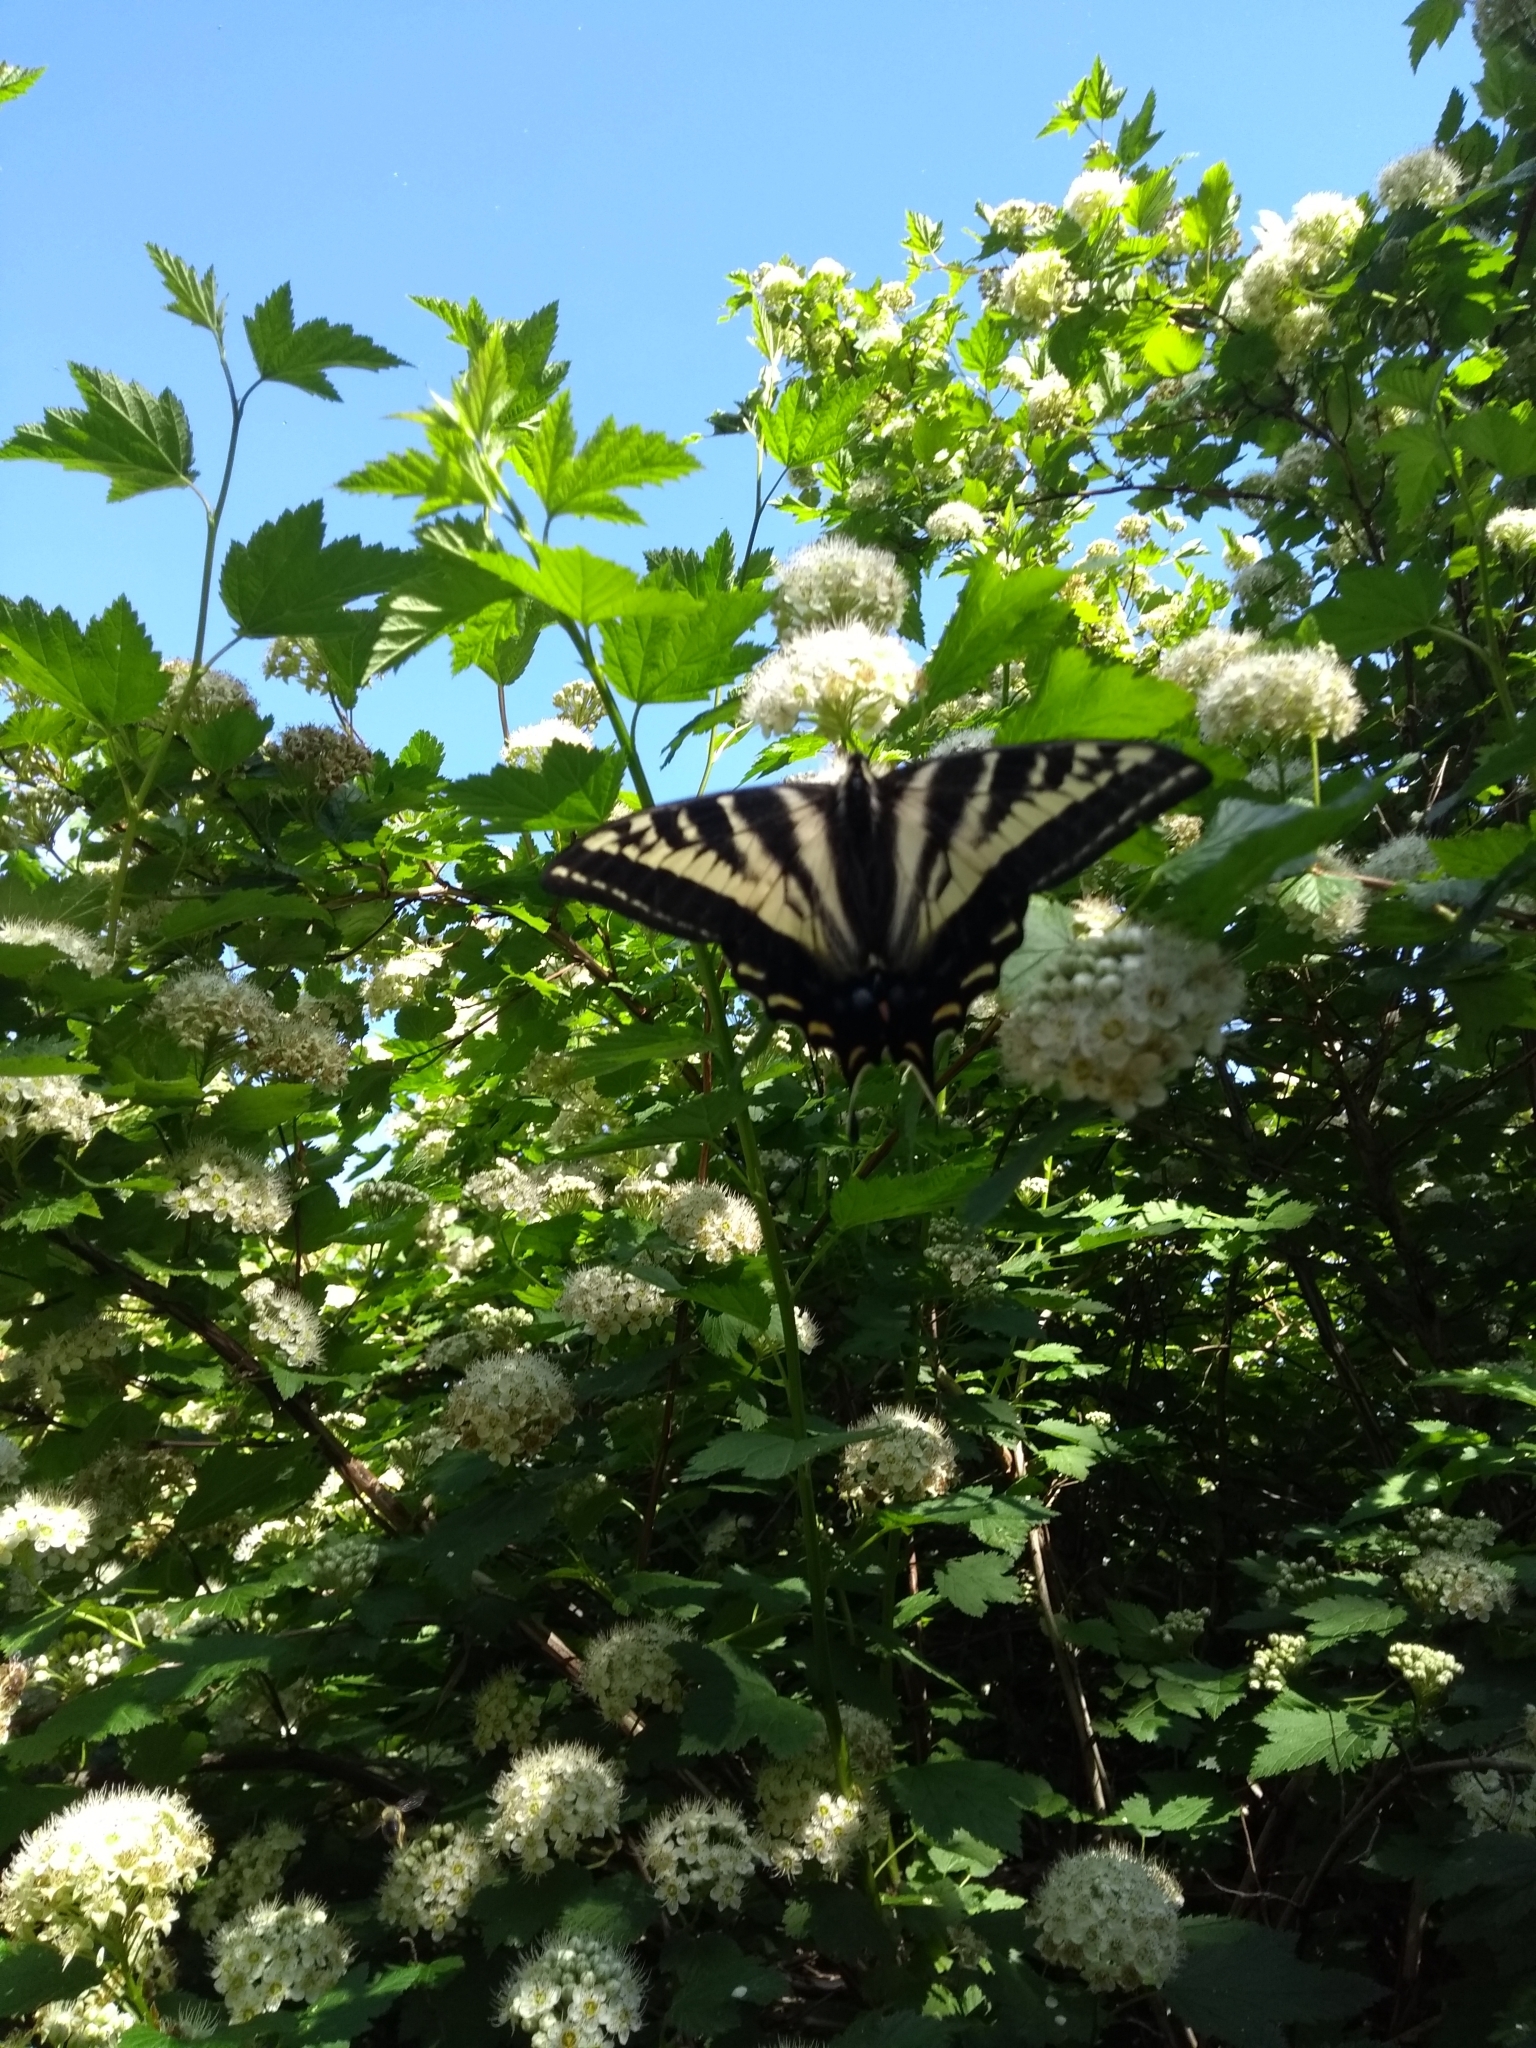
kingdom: Animalia
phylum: Arthropoda
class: Insecta
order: Lepidoptera
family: Papilionidae
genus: Papilio
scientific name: Papilio eurymedon
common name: Pale tiger swallowtail
